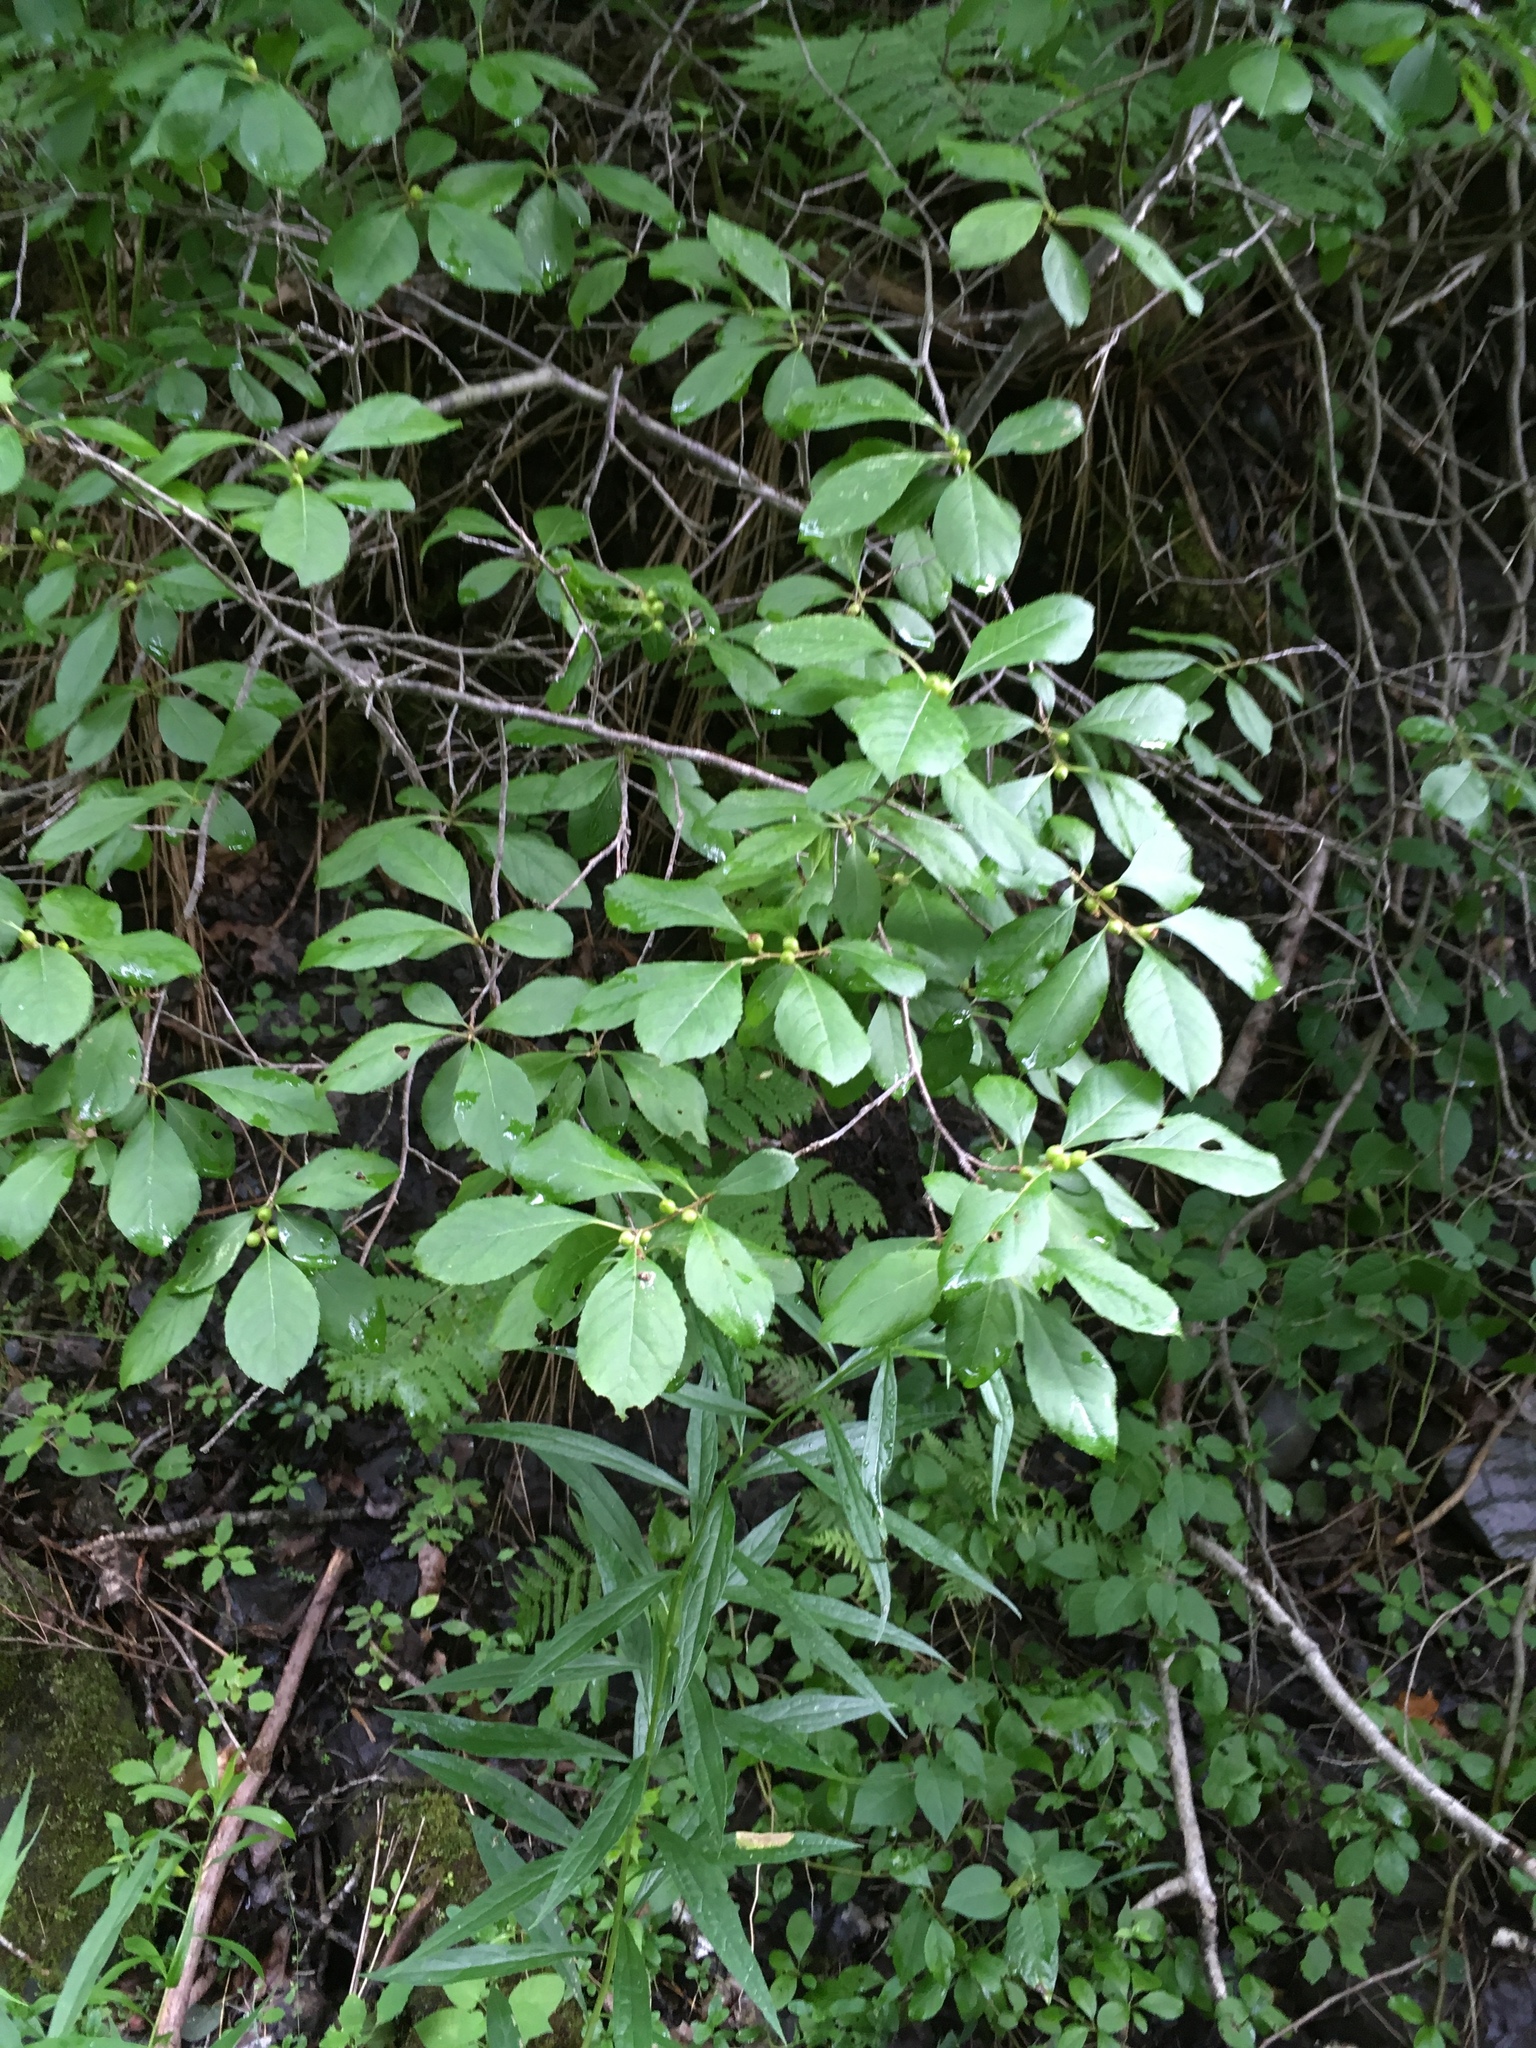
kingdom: Plantae
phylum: Tracheophyta
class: Magnoliopsida
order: Aquifoliales
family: Aquifoliaceae
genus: Ilex
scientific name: Ilex verticillata
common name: Virginia winterberry
